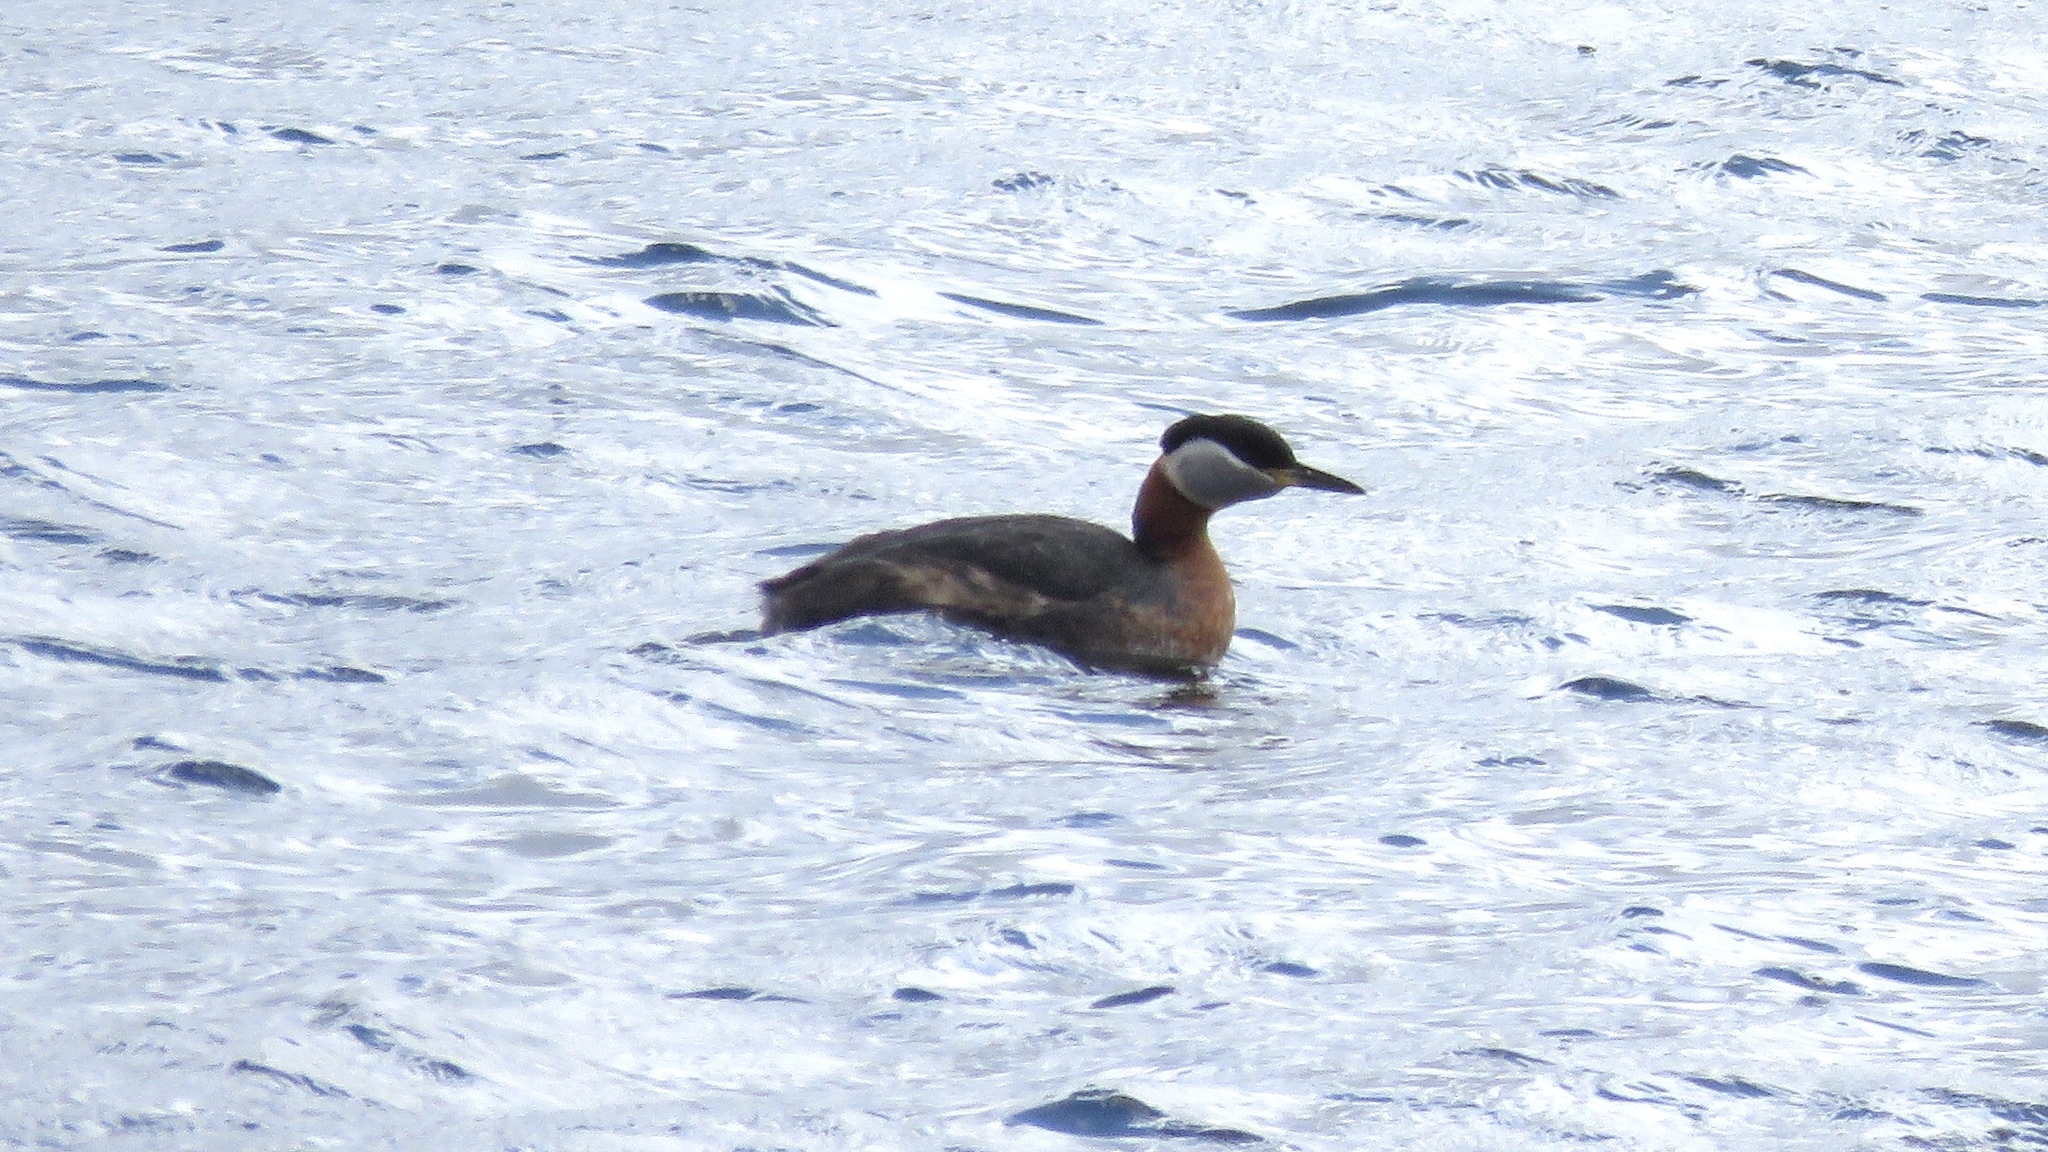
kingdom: Animalia
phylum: Chordata
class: Aves
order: Podicipediformes
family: Podicipedidae
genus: Podiceps
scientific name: Podiceps grisegena
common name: Red-necked grebe
